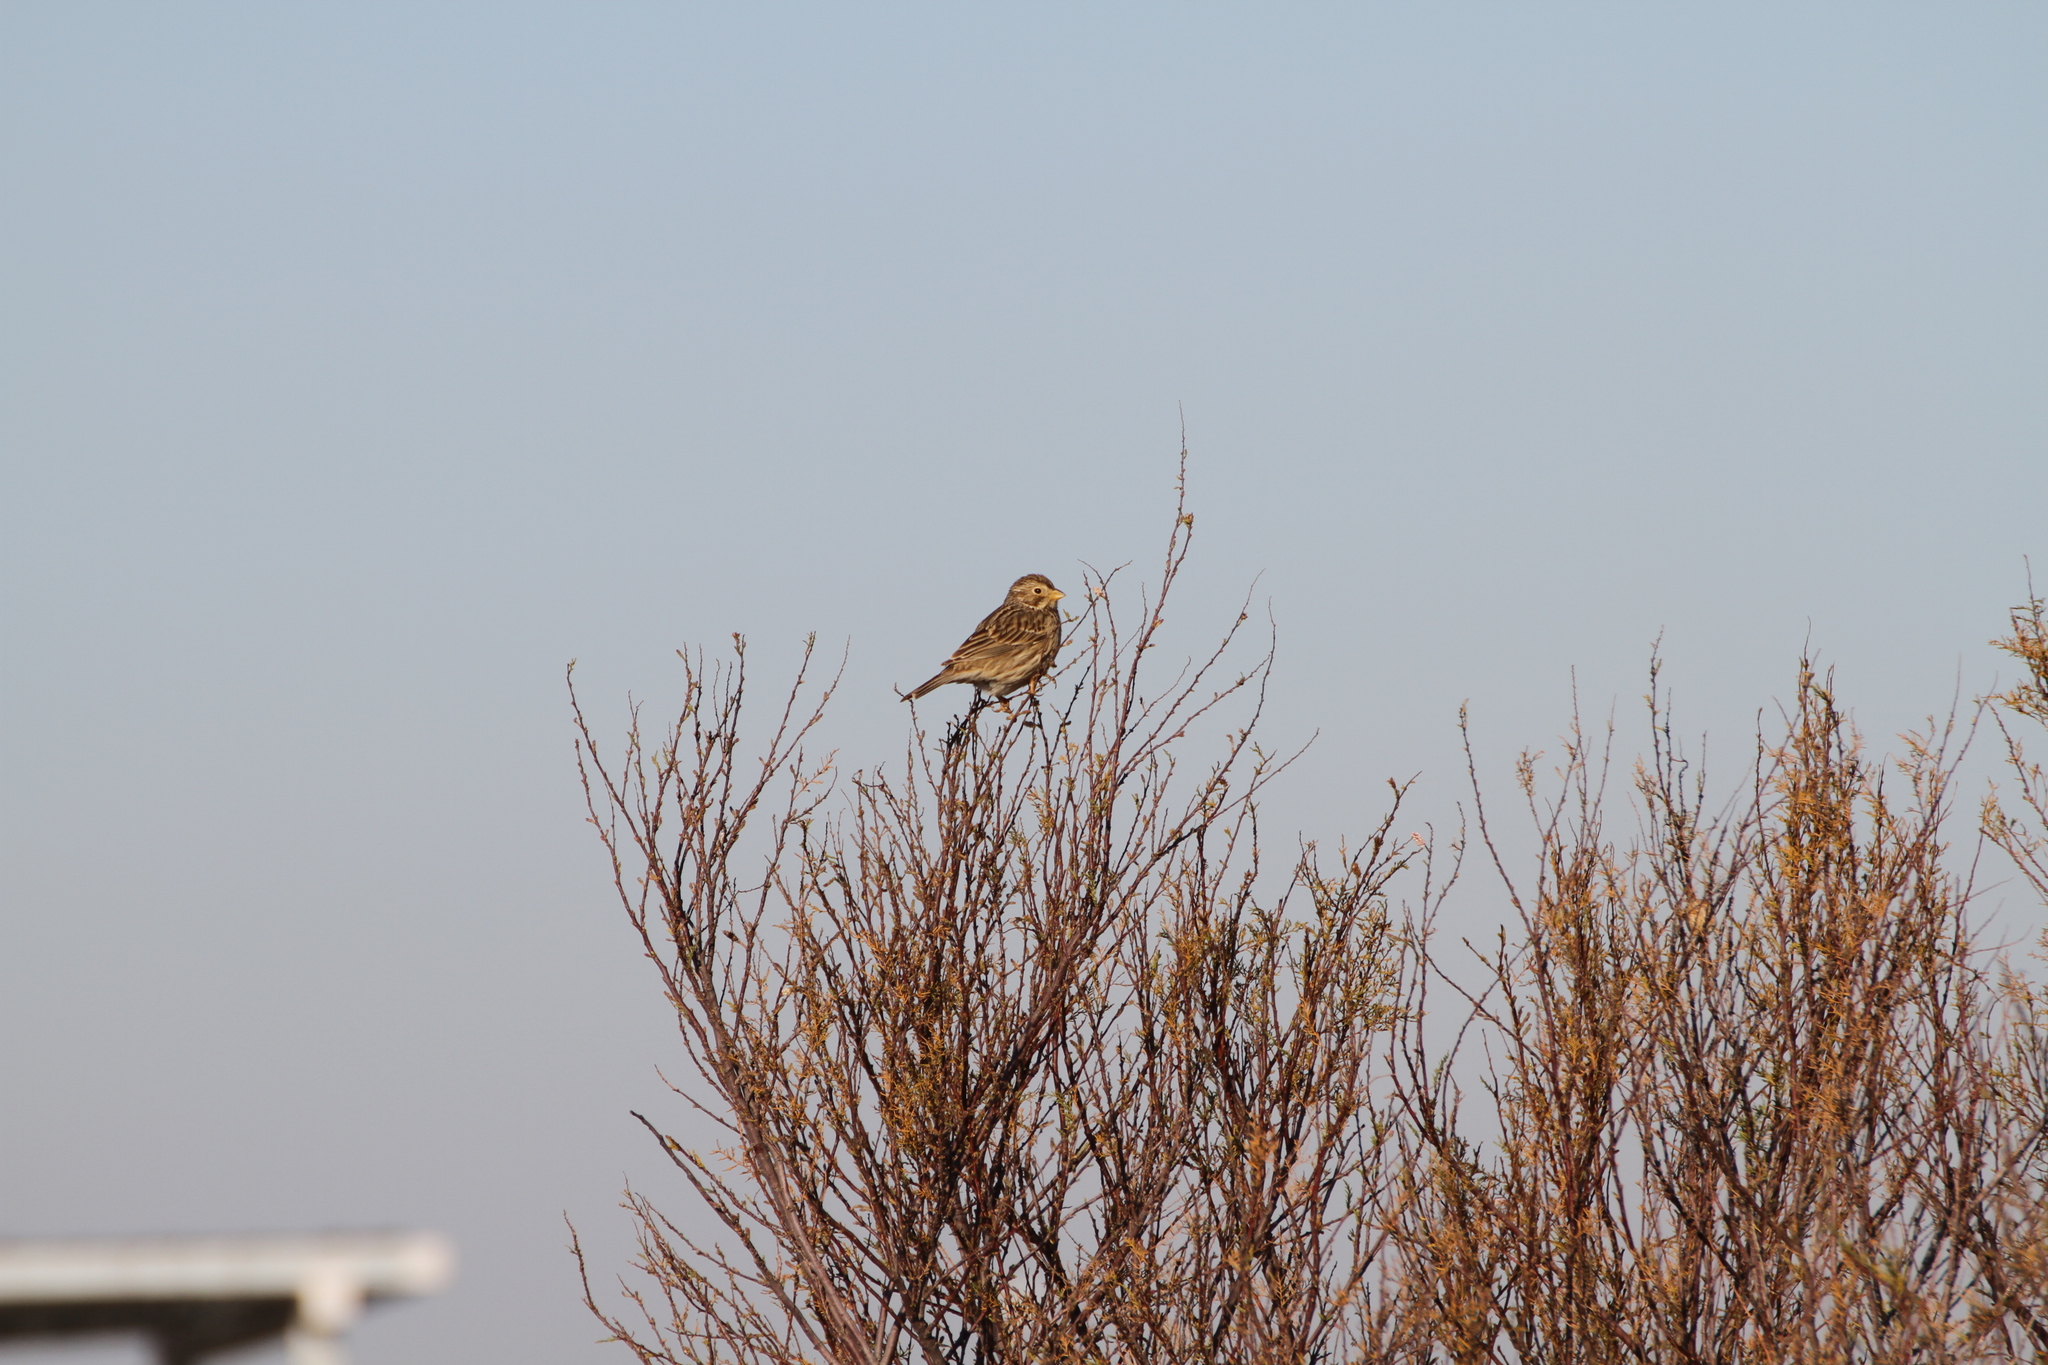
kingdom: Animalia
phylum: Chordata
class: Aves
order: Passeriformes
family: Emberizidae
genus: Emberiza
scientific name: Emberiza calandra
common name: Corn bunting
